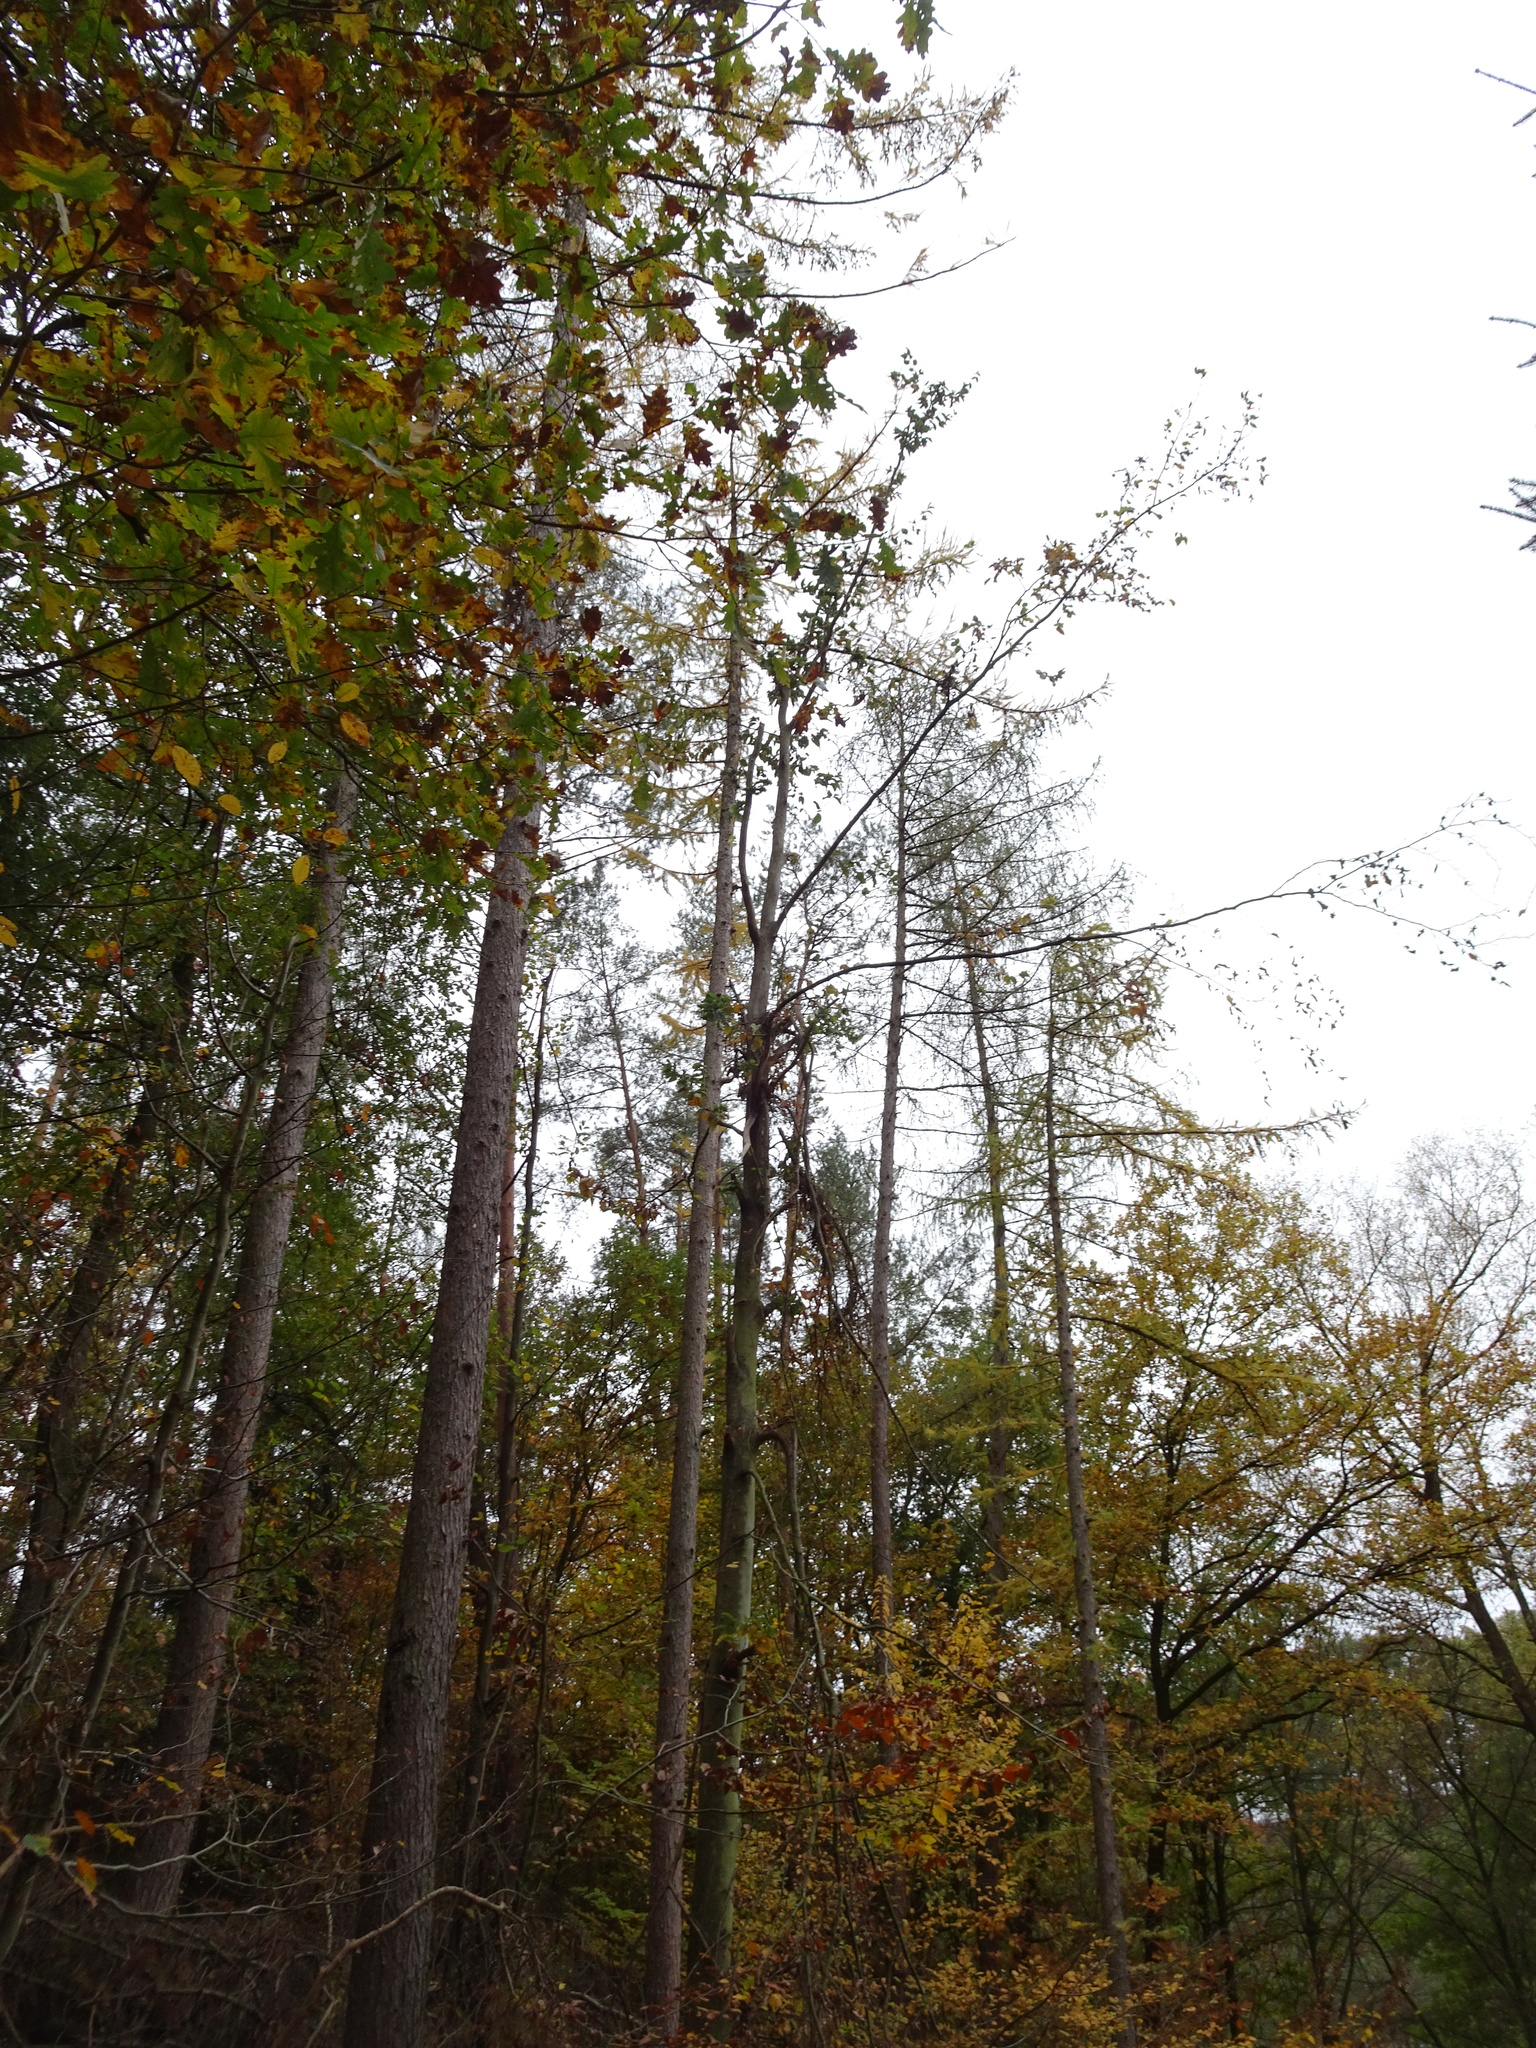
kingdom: Plantae
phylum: Tracheophyta
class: Pinopsida
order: Pinales
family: Pinaceae
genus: Larix
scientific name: Larix decidua
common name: European larch
